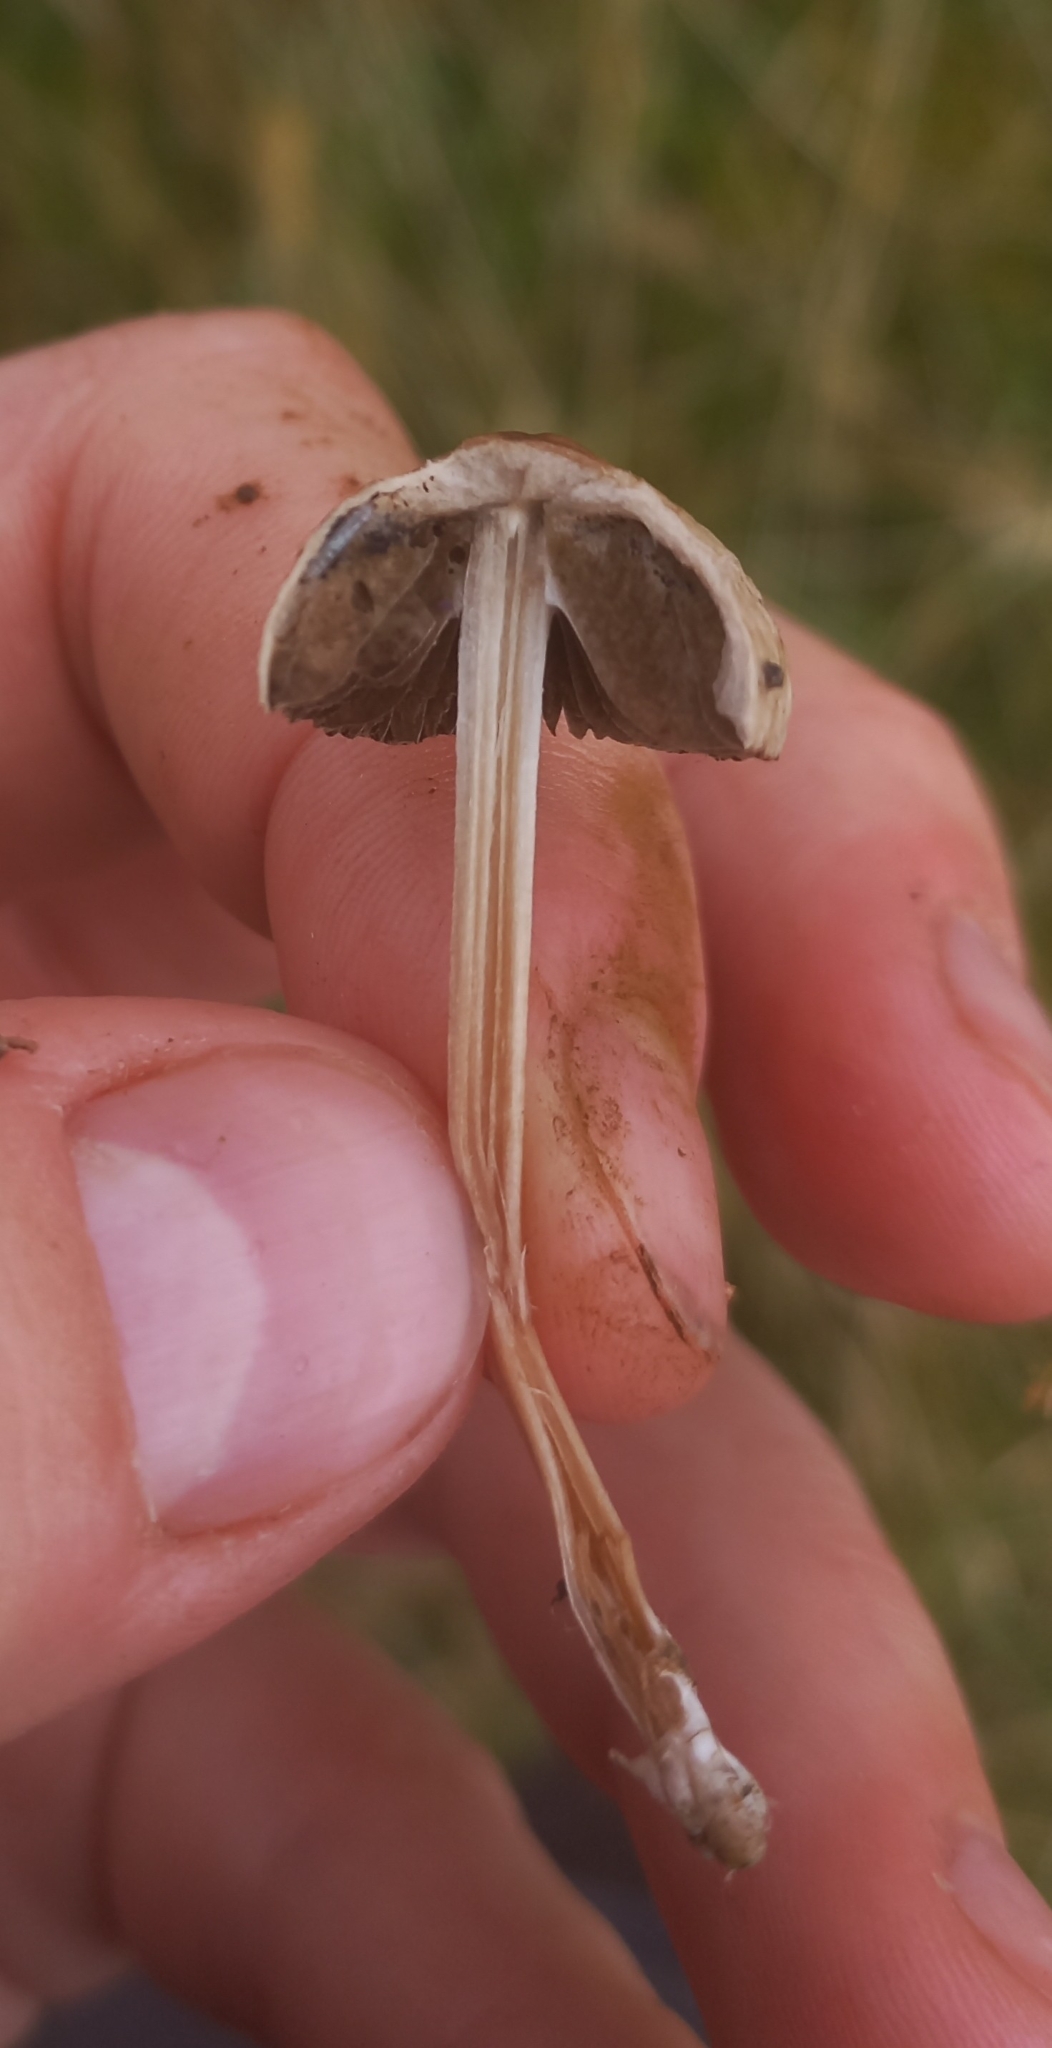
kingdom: Fungi
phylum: Basidiomycota
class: Agaricomycetes
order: Agaricales
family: Bolbitiaceae
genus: Panaeolina
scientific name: Panaeolina foenisecii
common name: Brown hay cap
